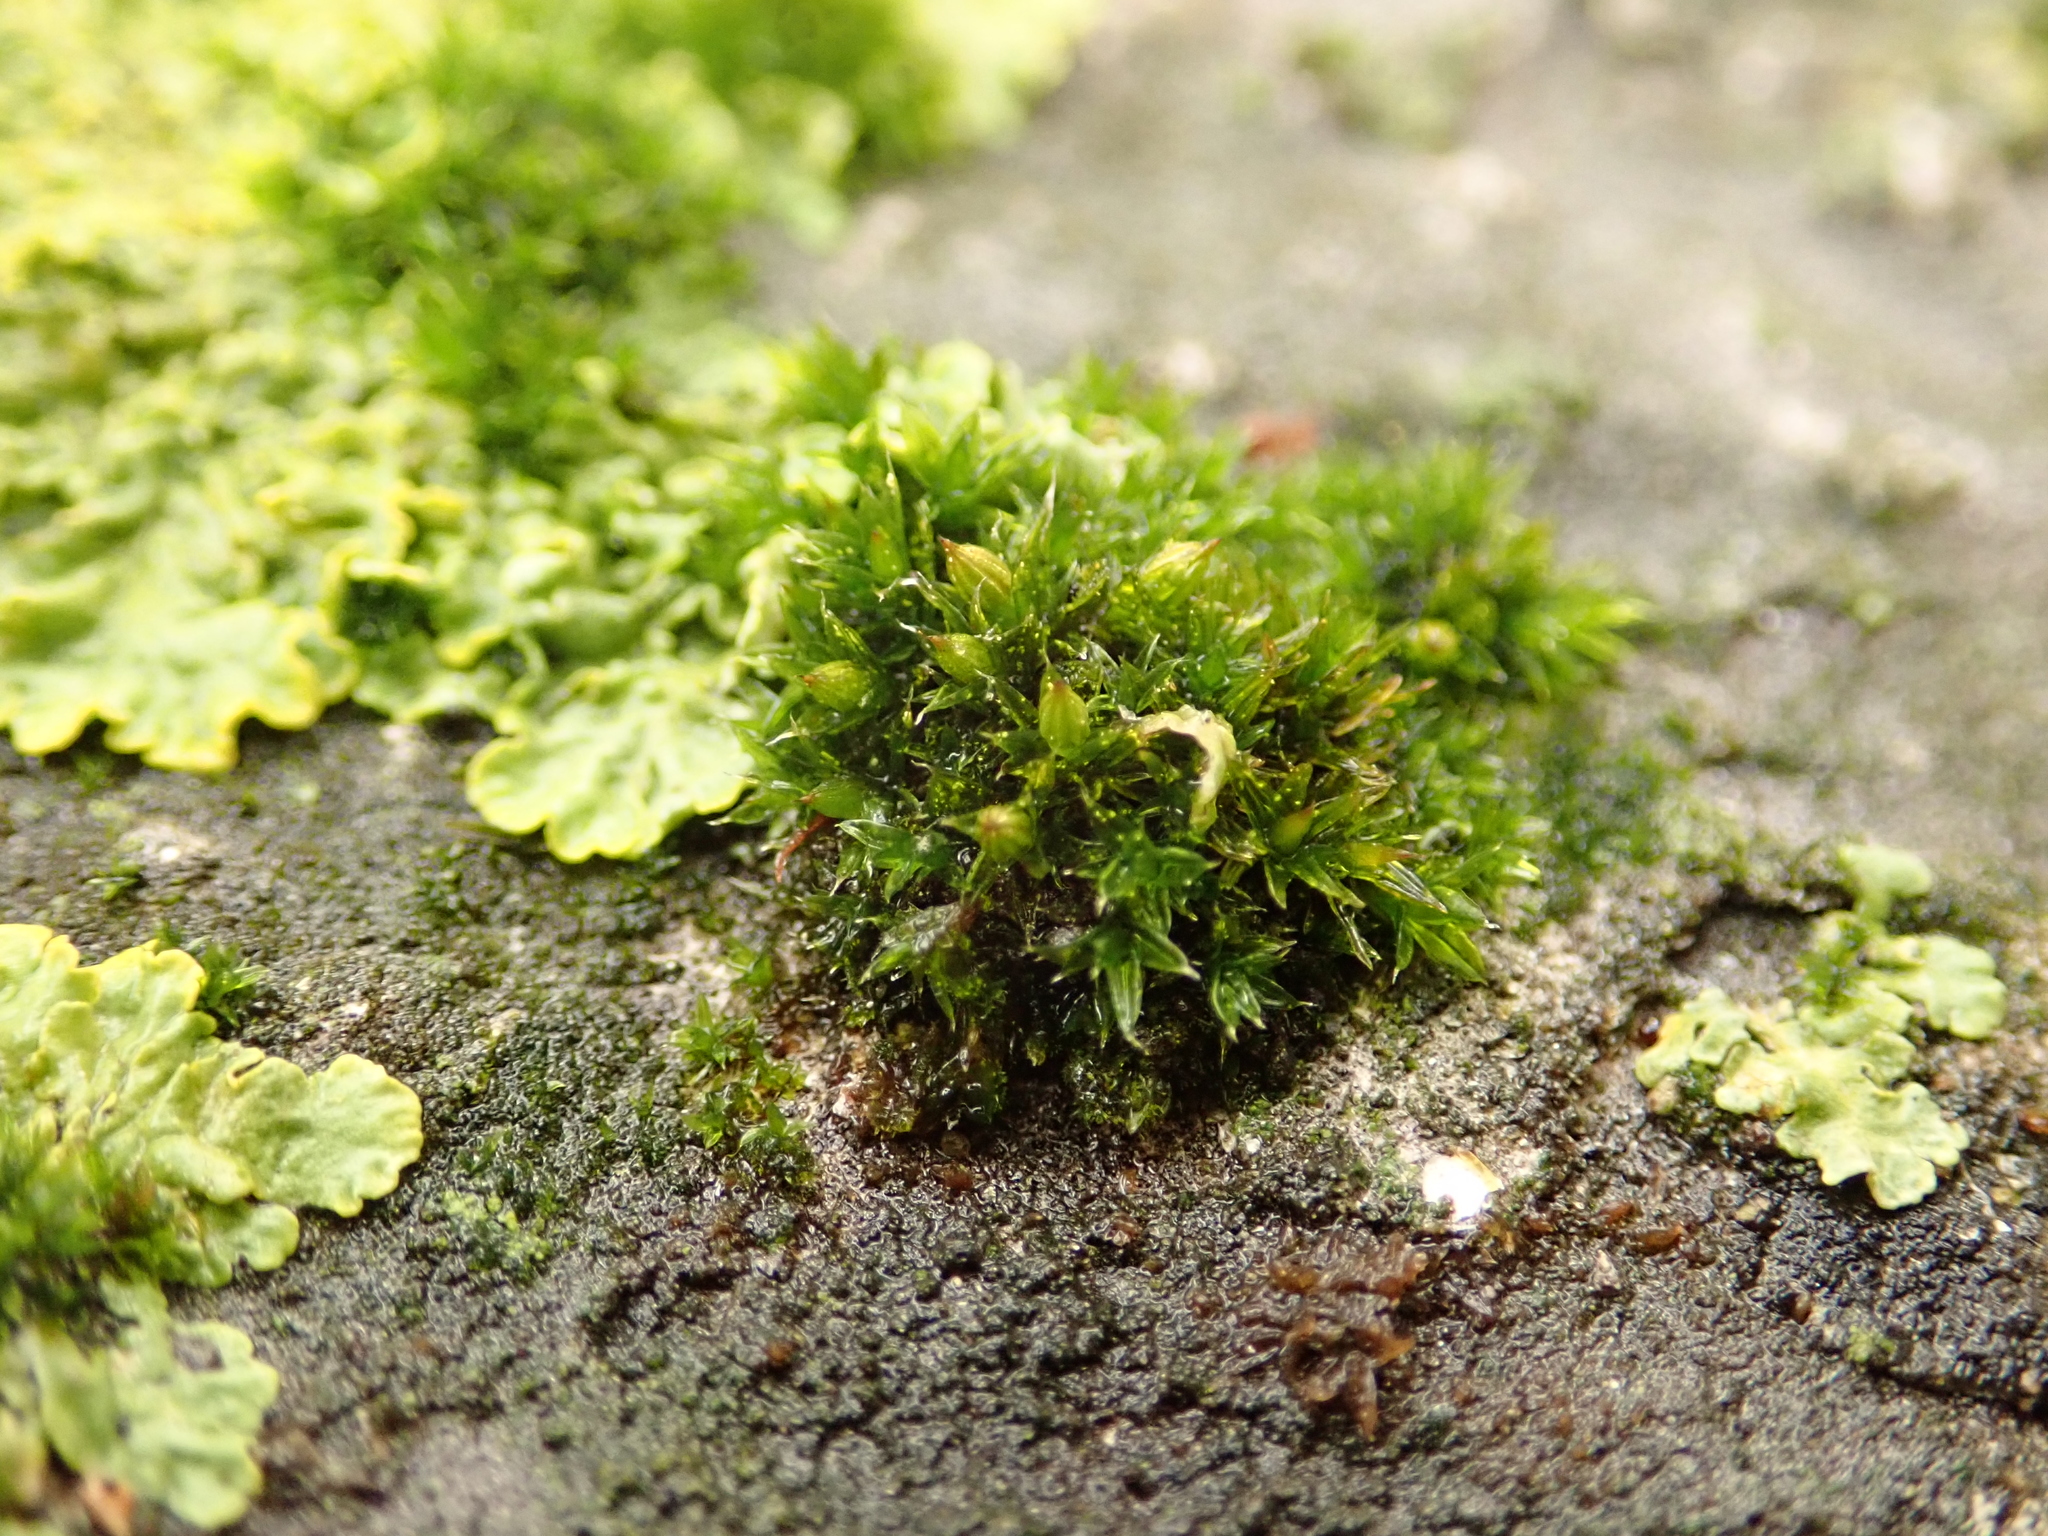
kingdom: Plantae
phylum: Bryophyta
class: Bryopsida
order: Orthotrichales
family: Orthotrichaceae
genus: Orthotrichum
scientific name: Orthotrichum diaphanum
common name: White-tipped bristle-moss
